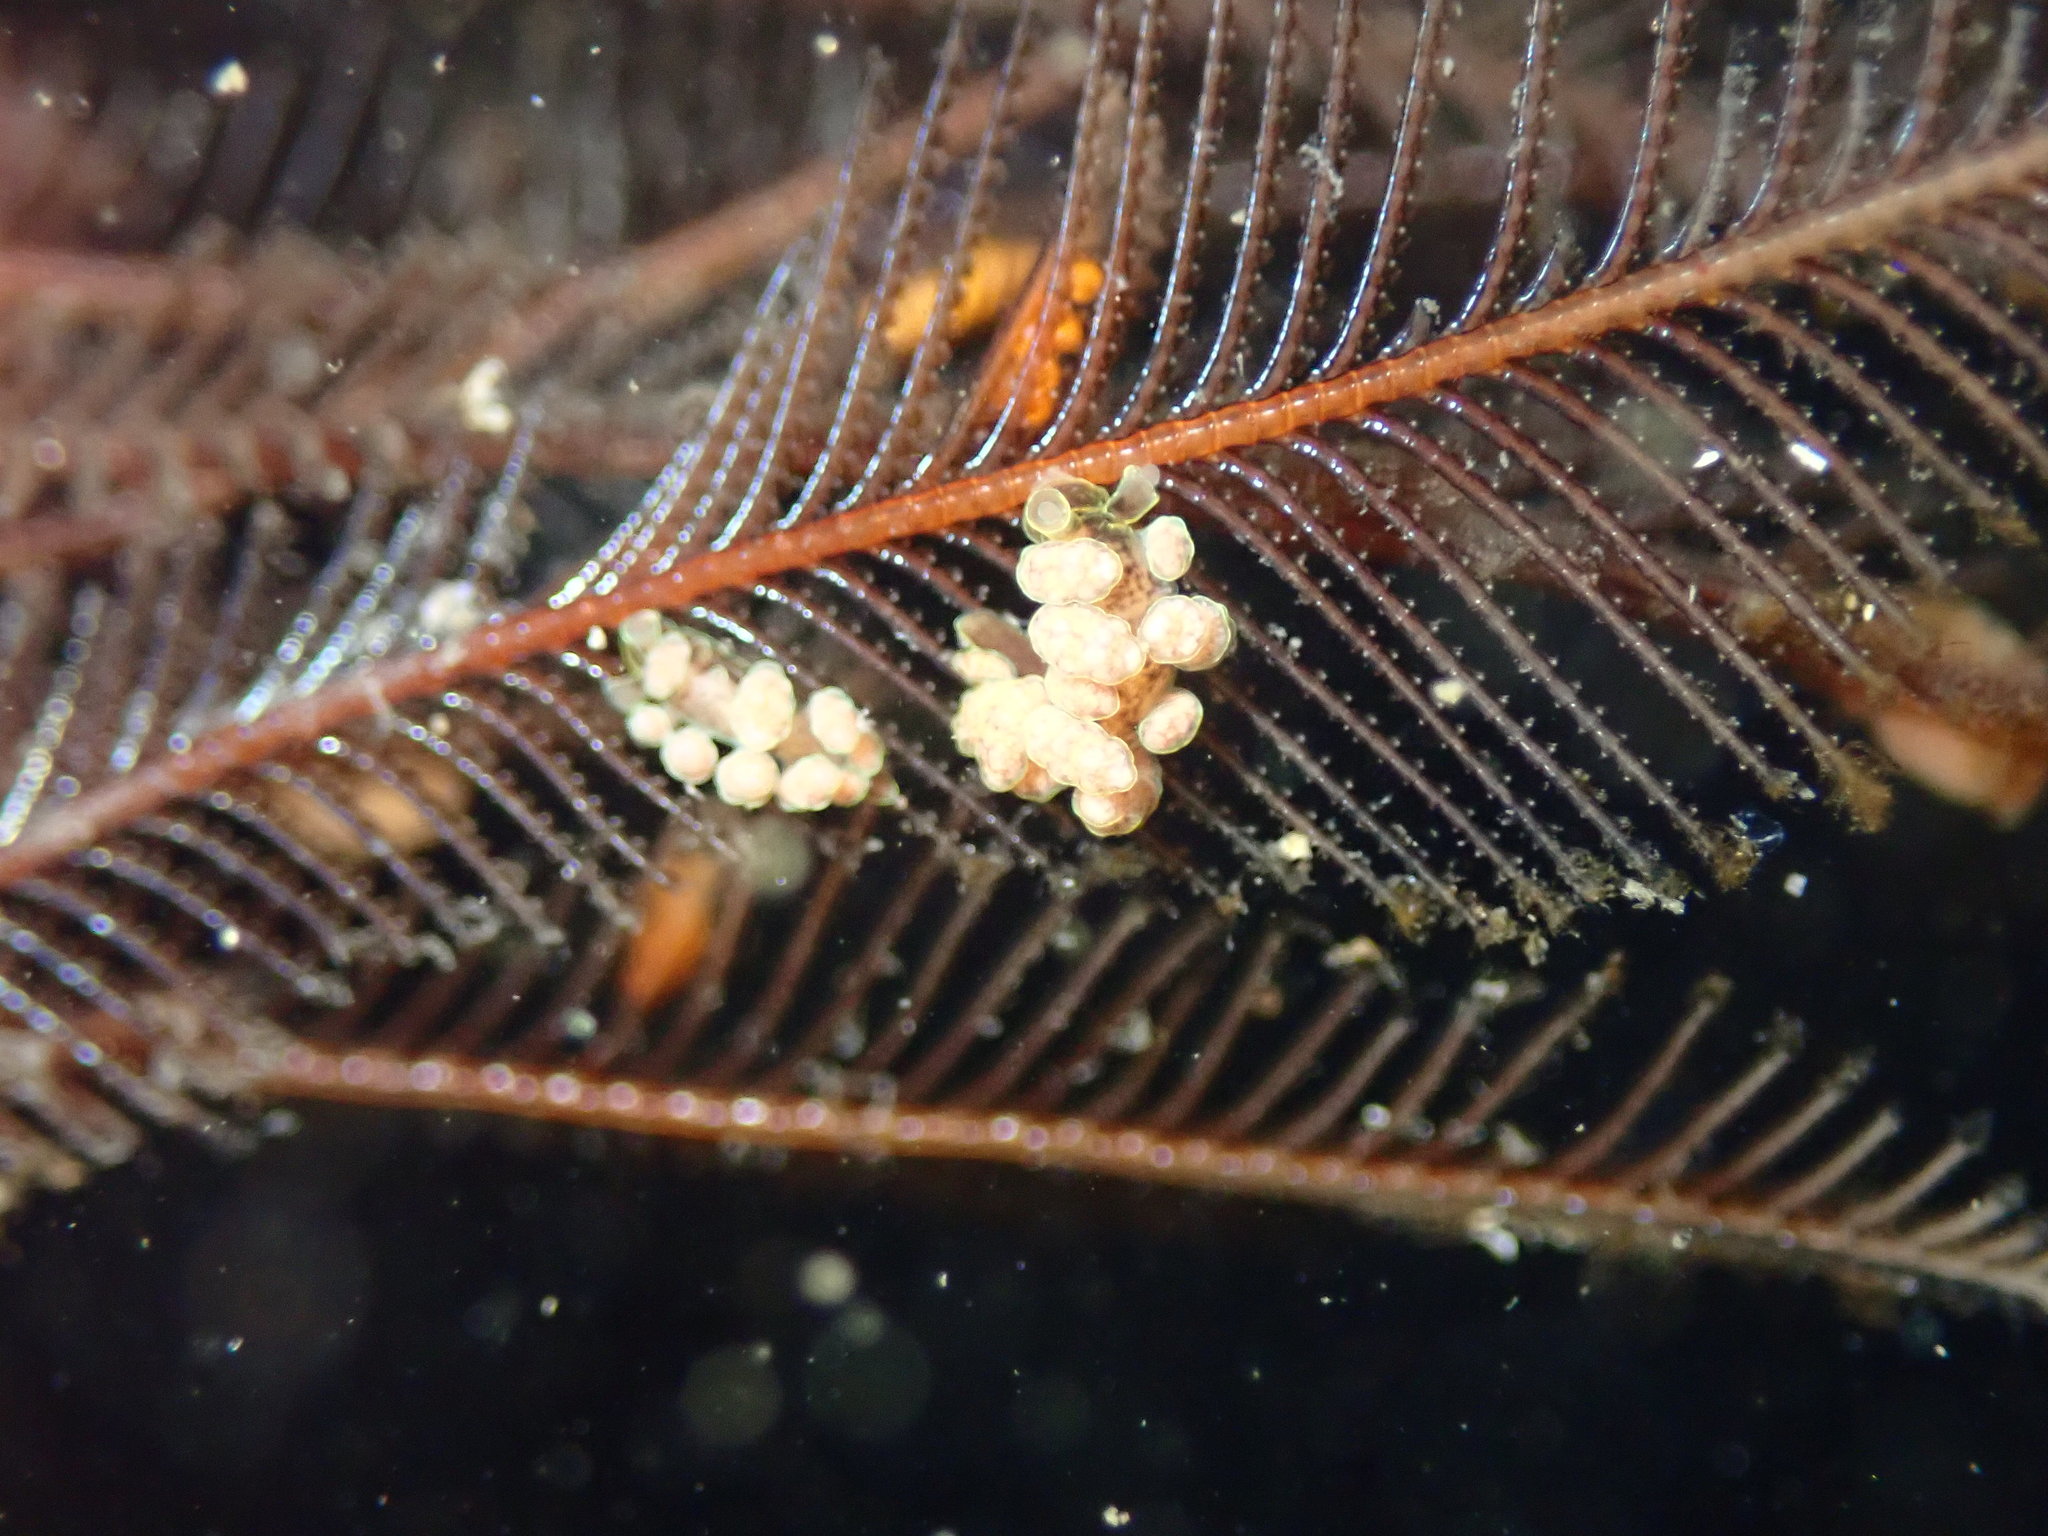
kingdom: Animalia
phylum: Mollusca
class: Gastropoda
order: Nudibranchia
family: Dotidae
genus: Doto
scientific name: Doto columbiana
